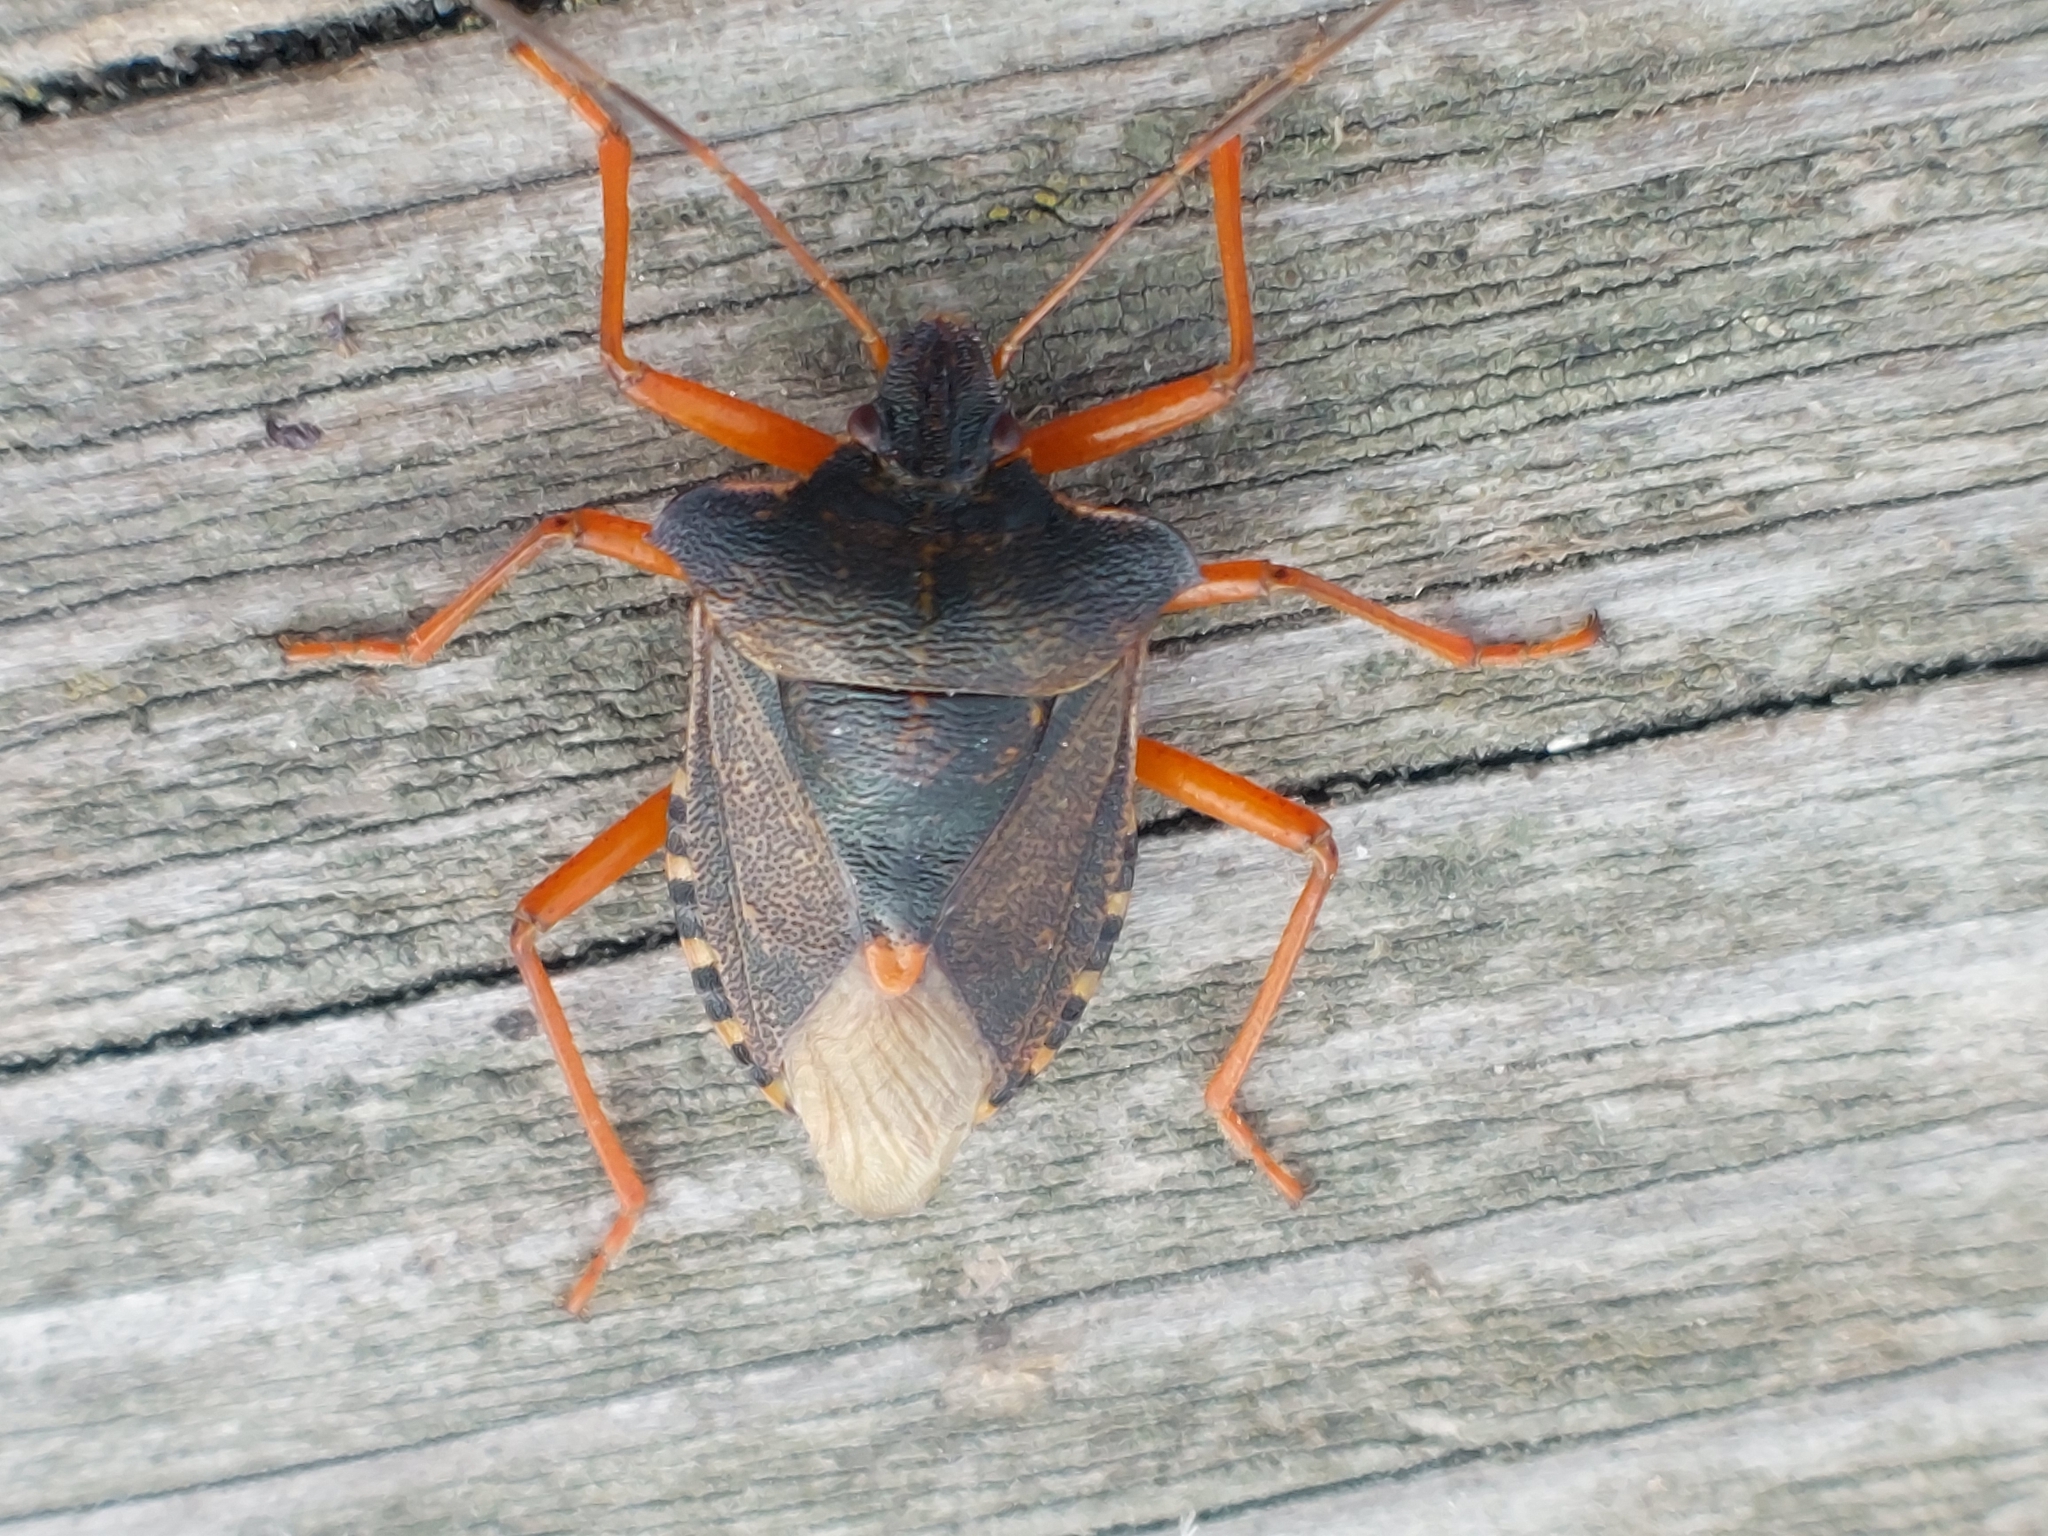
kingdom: Animalia
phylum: Arthropoda
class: Insecta
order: Hemiptera
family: Pentatomidae
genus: Pentatoma
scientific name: Pentatoma rufipes
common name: Forest bug
